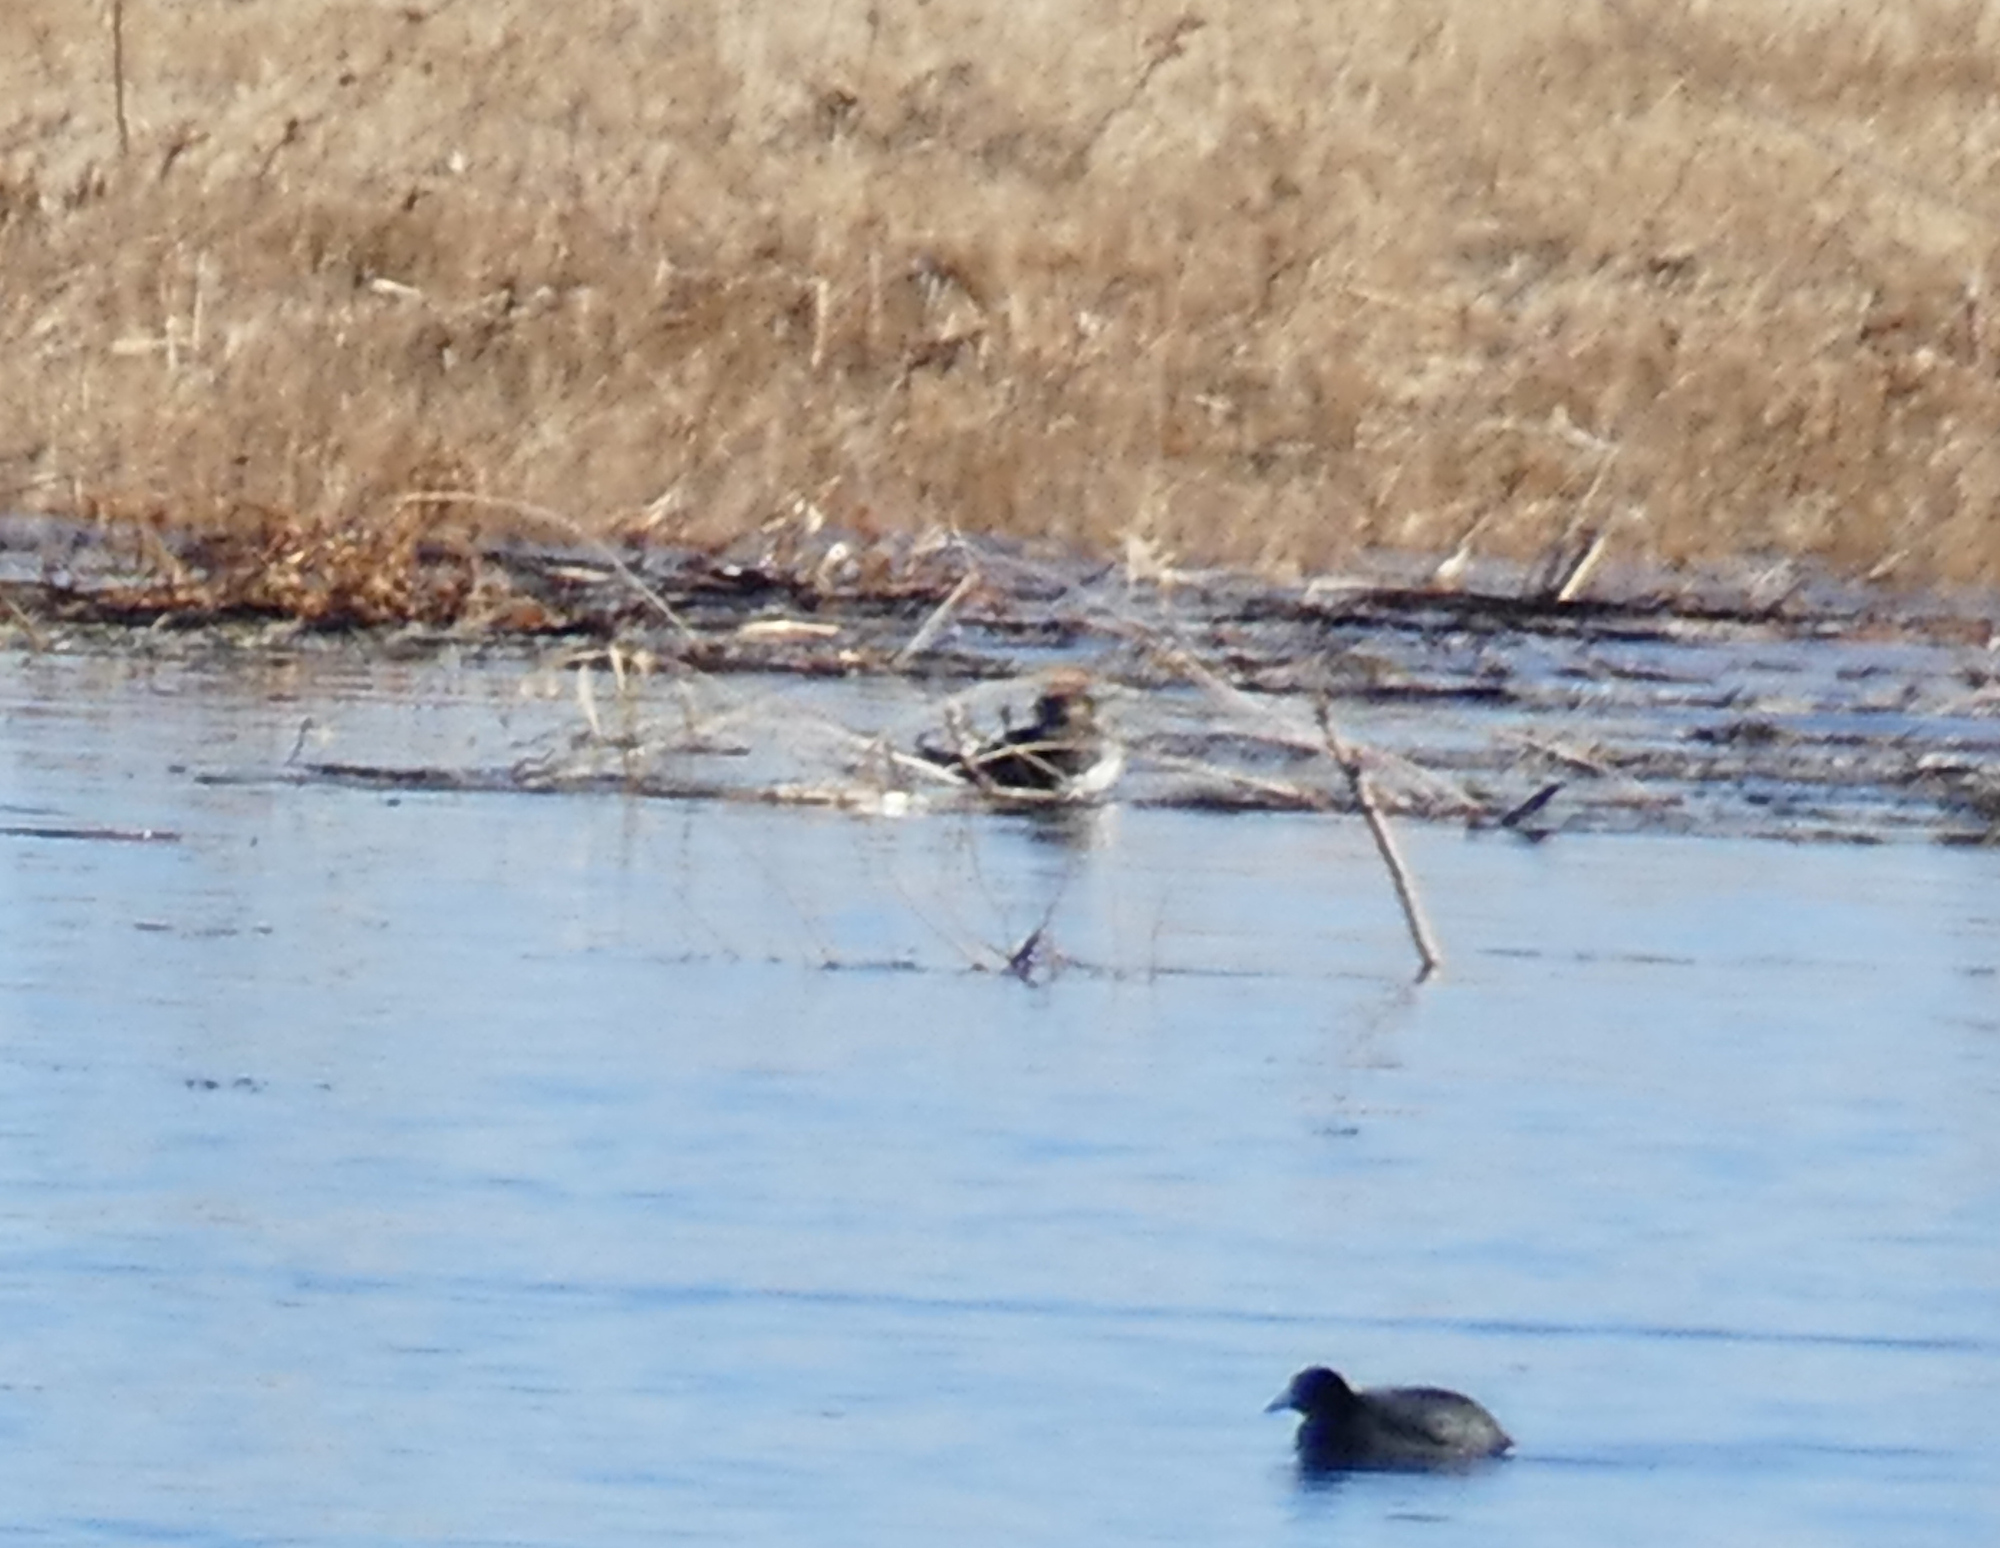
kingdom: Animalia
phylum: Chordata
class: Aves
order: Anseriformes
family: Anatidae
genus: Lophodytes
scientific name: Lophodytes cucullatus
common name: Hooded merganser
